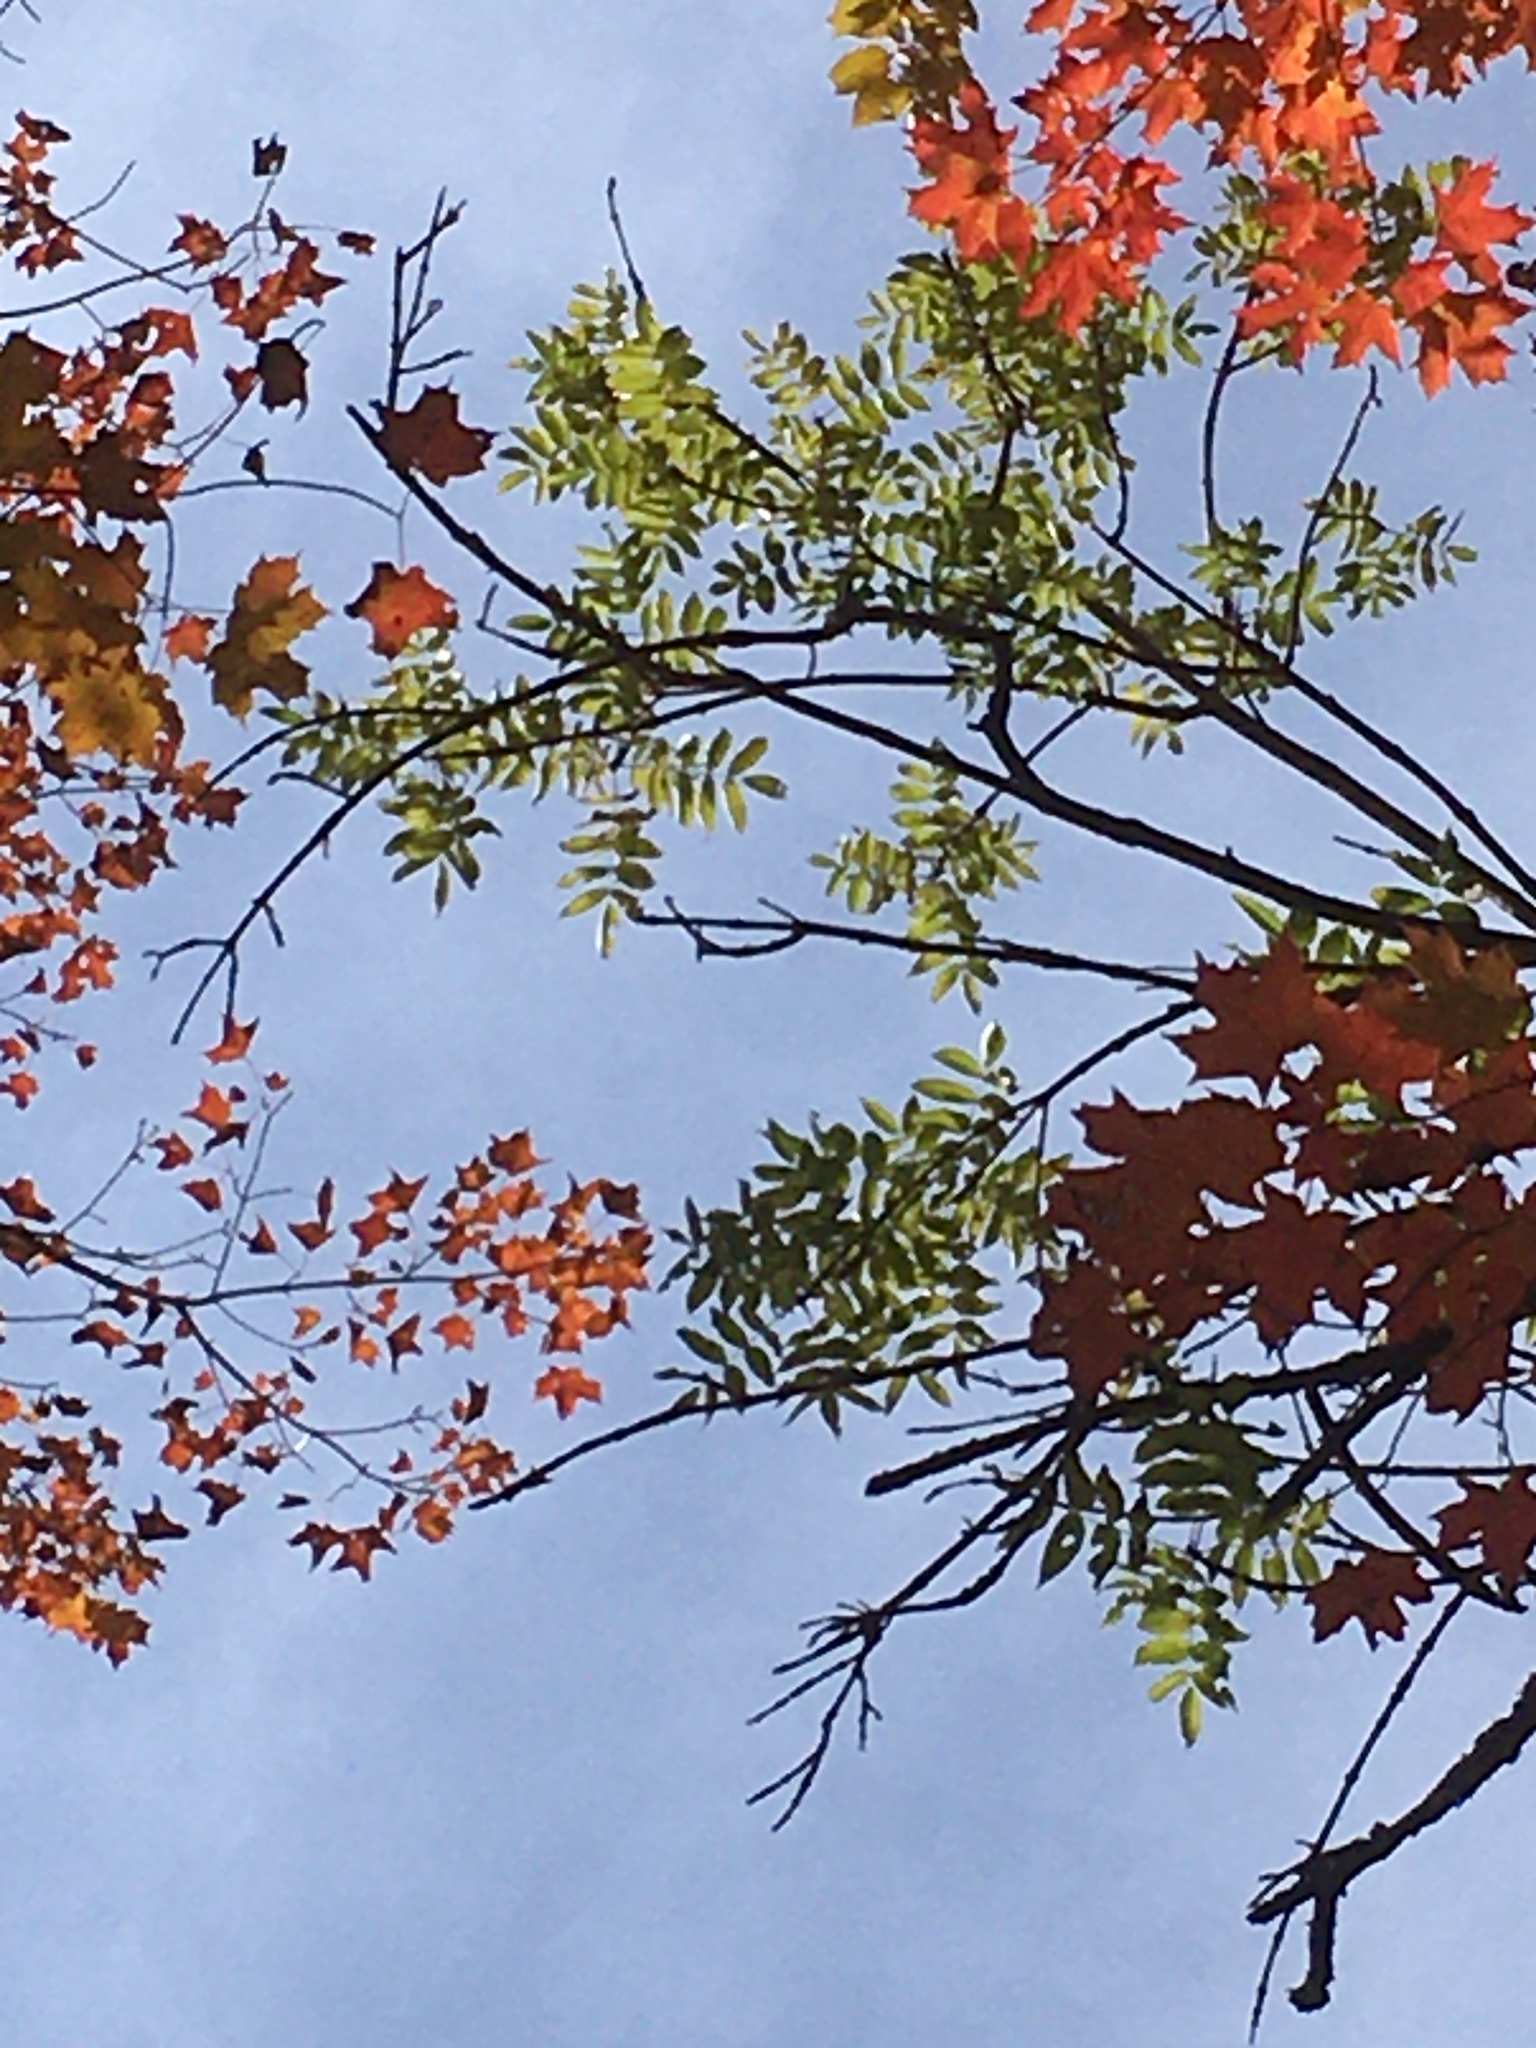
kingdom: Plantae
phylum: Tracheophyta
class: Magnoliopsida
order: Lamiales
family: Oleaceae
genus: Fraxinus
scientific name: Fraxinus nigra
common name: Black ash
